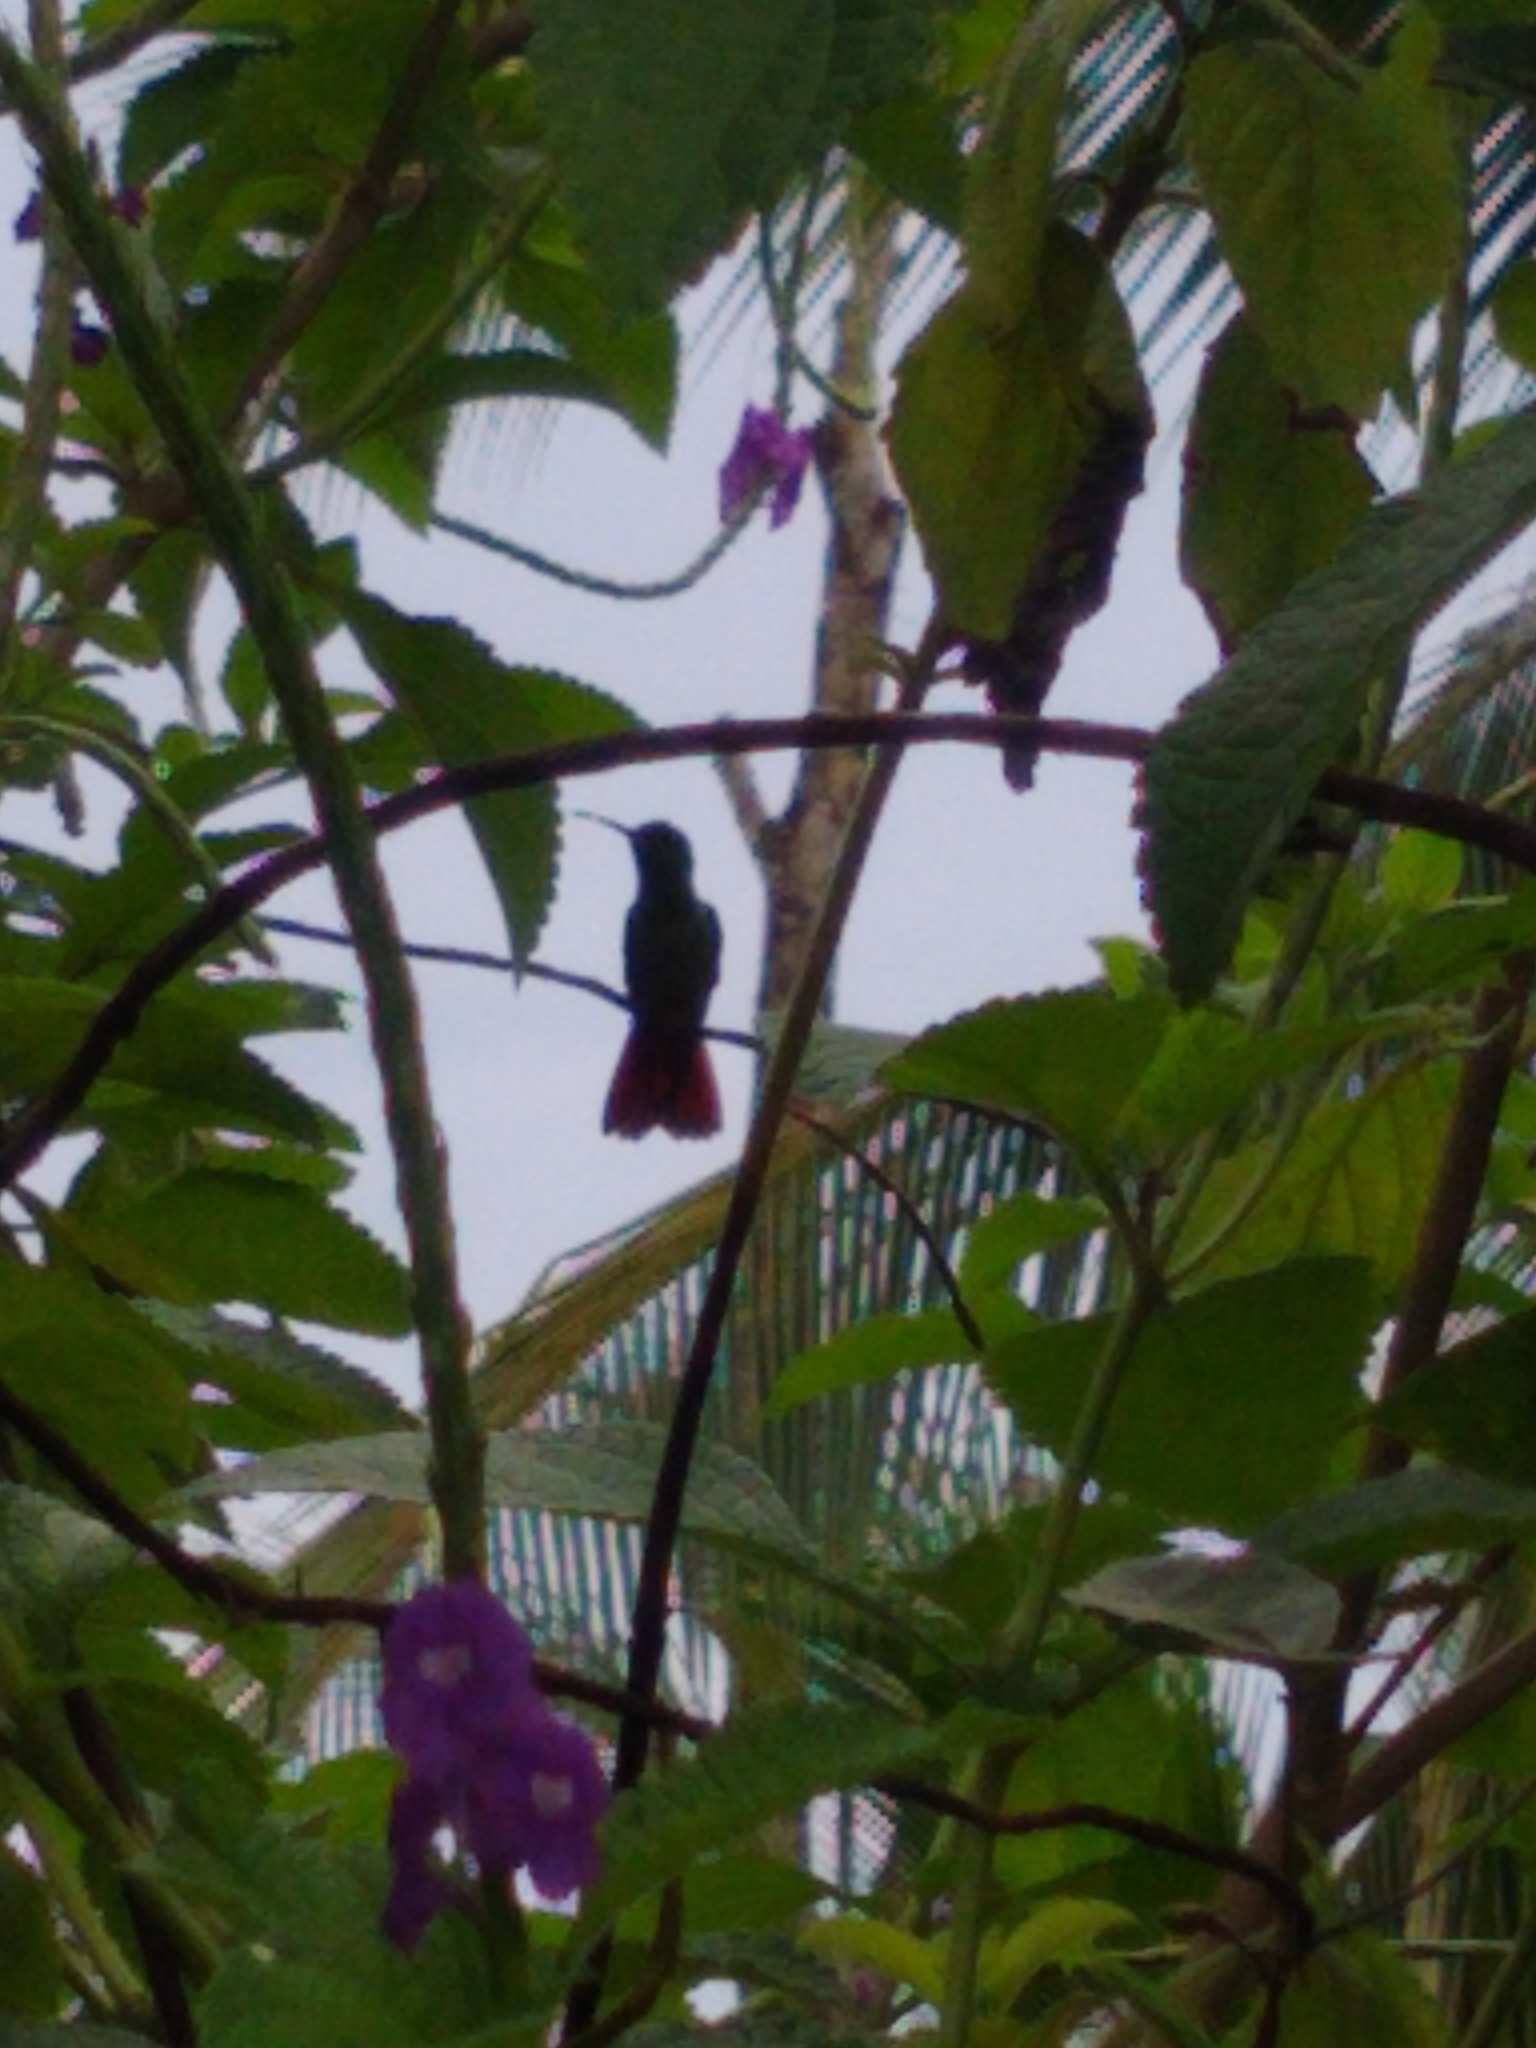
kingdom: Animalia
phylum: Chordata
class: Aves
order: Apodiformes
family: Trochilidae
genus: Amazilia
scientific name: Amazilia tzacatl
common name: Rufous-tailed hummingbird
